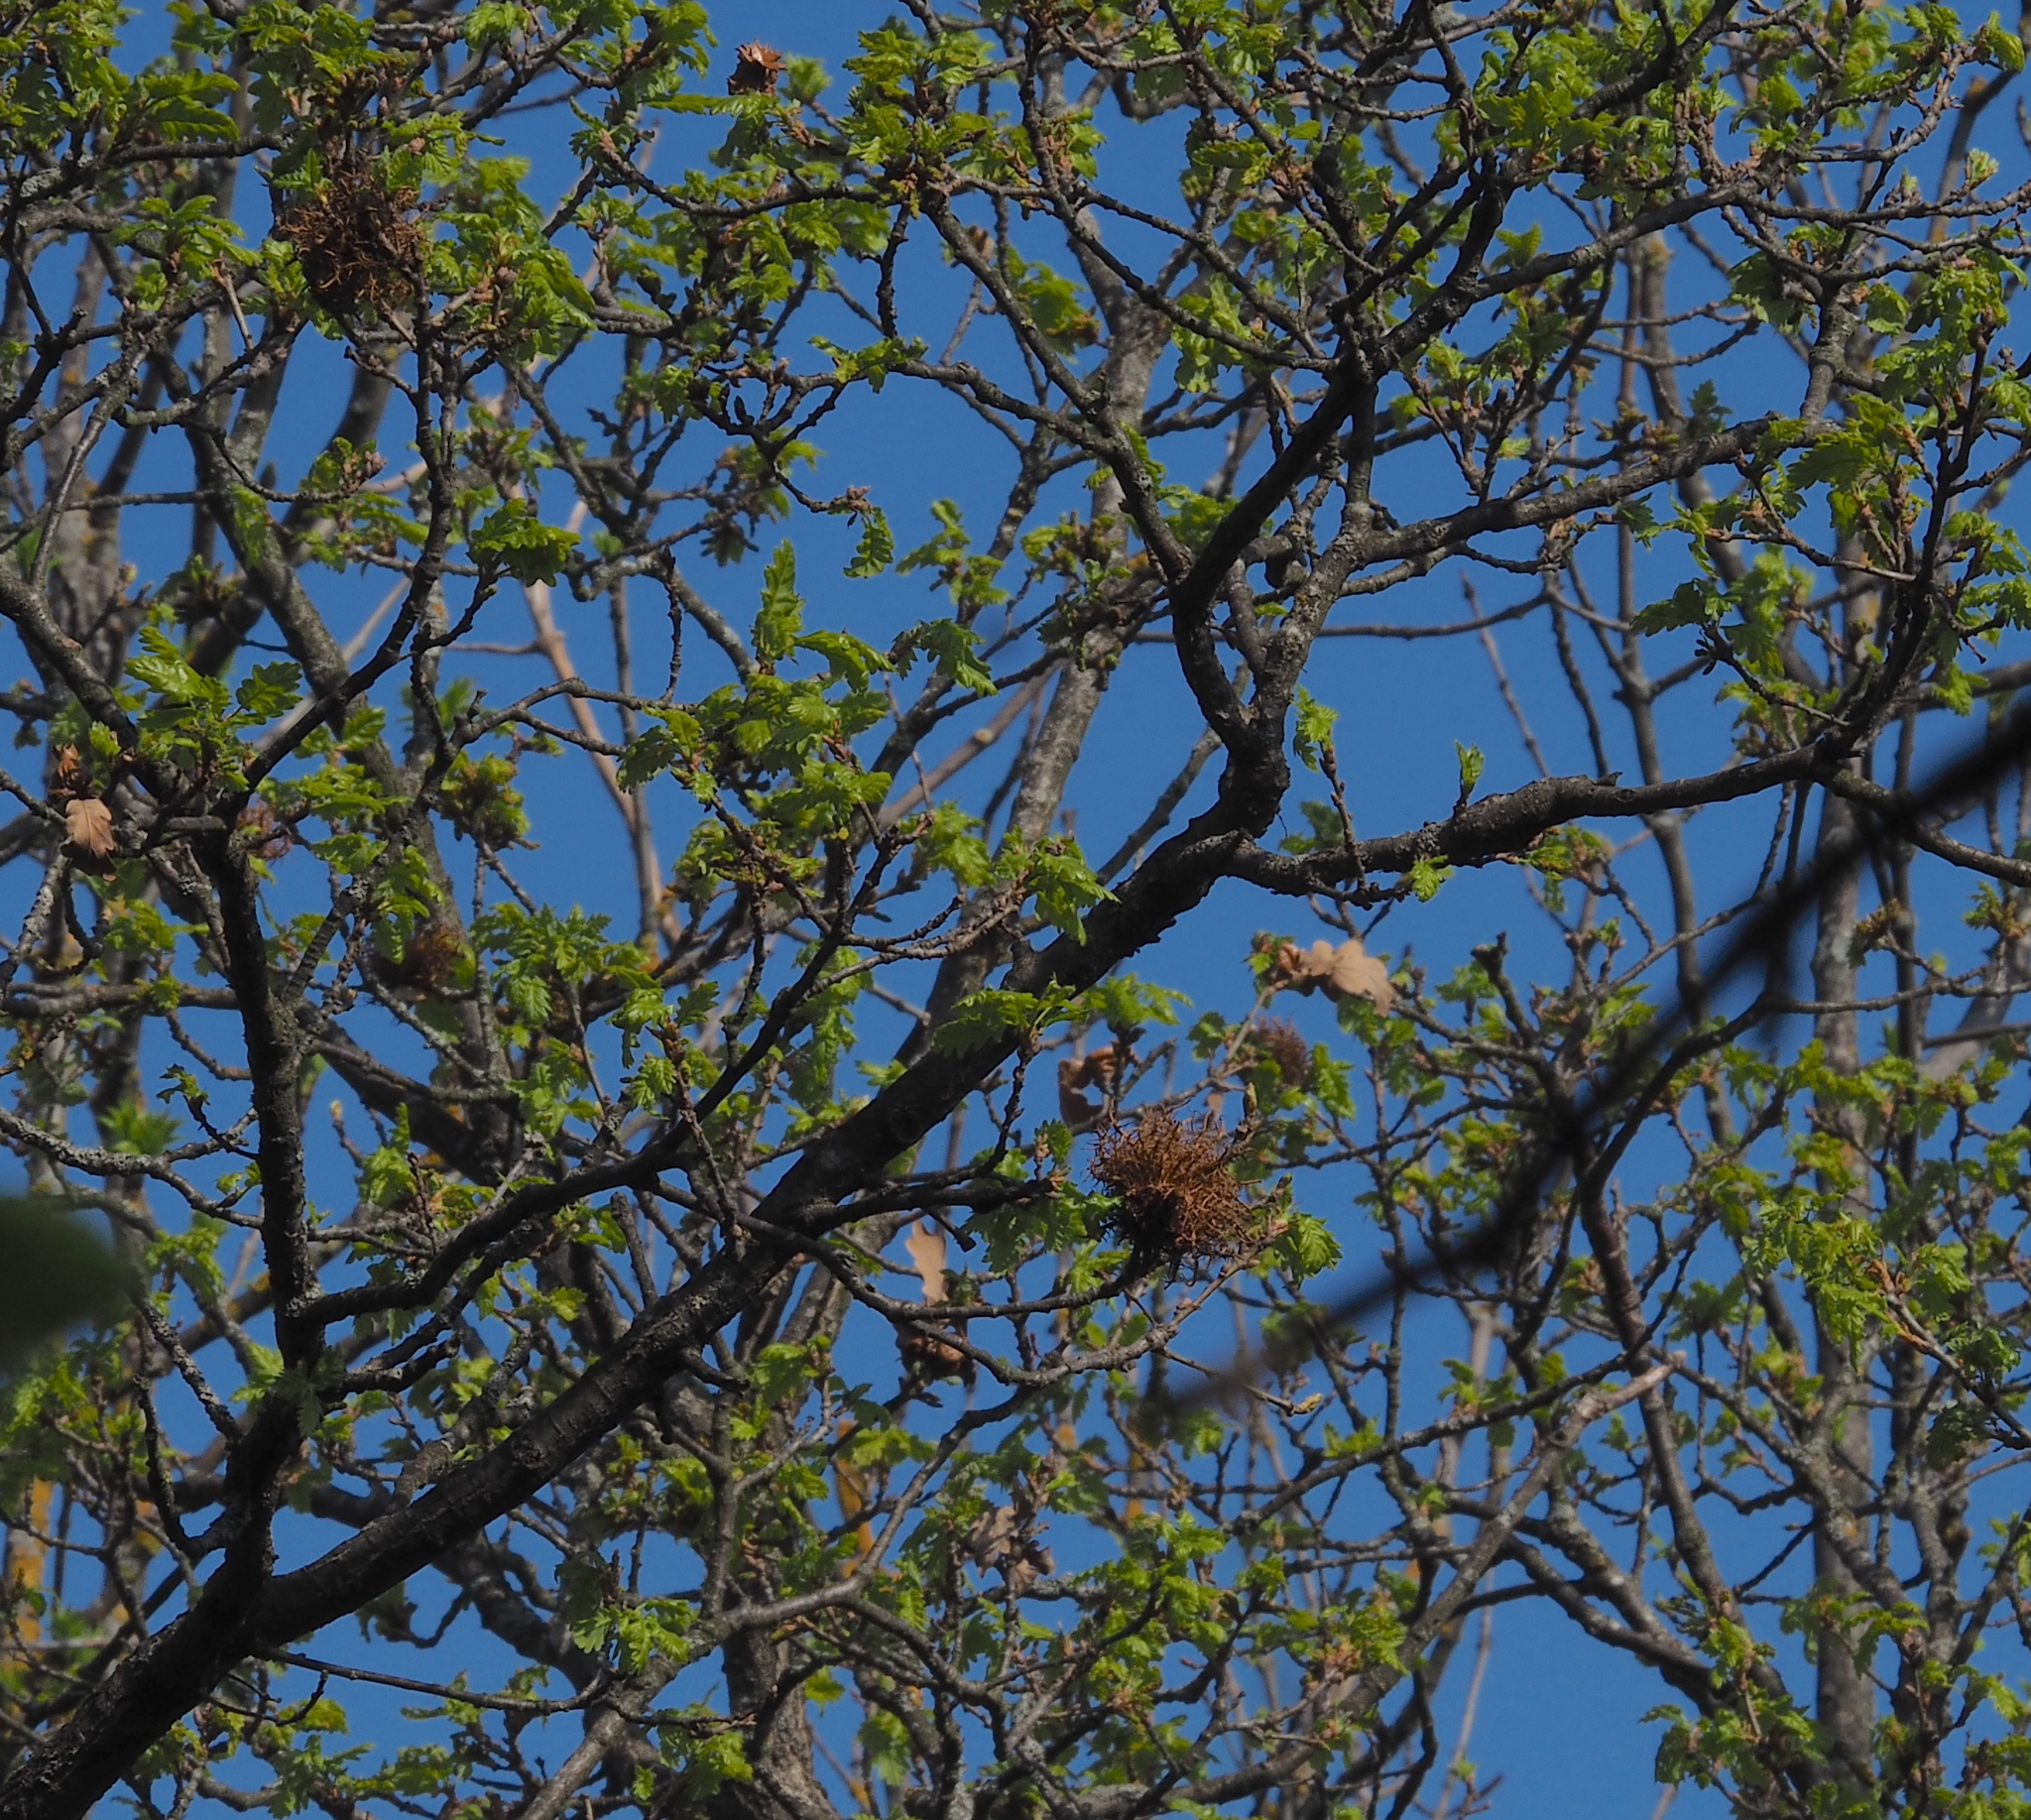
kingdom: Animalia
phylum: Arthropoda
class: Insecta
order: Hymenoptera
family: Cynipidae
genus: Andricus
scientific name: Andricus caputmedusae
